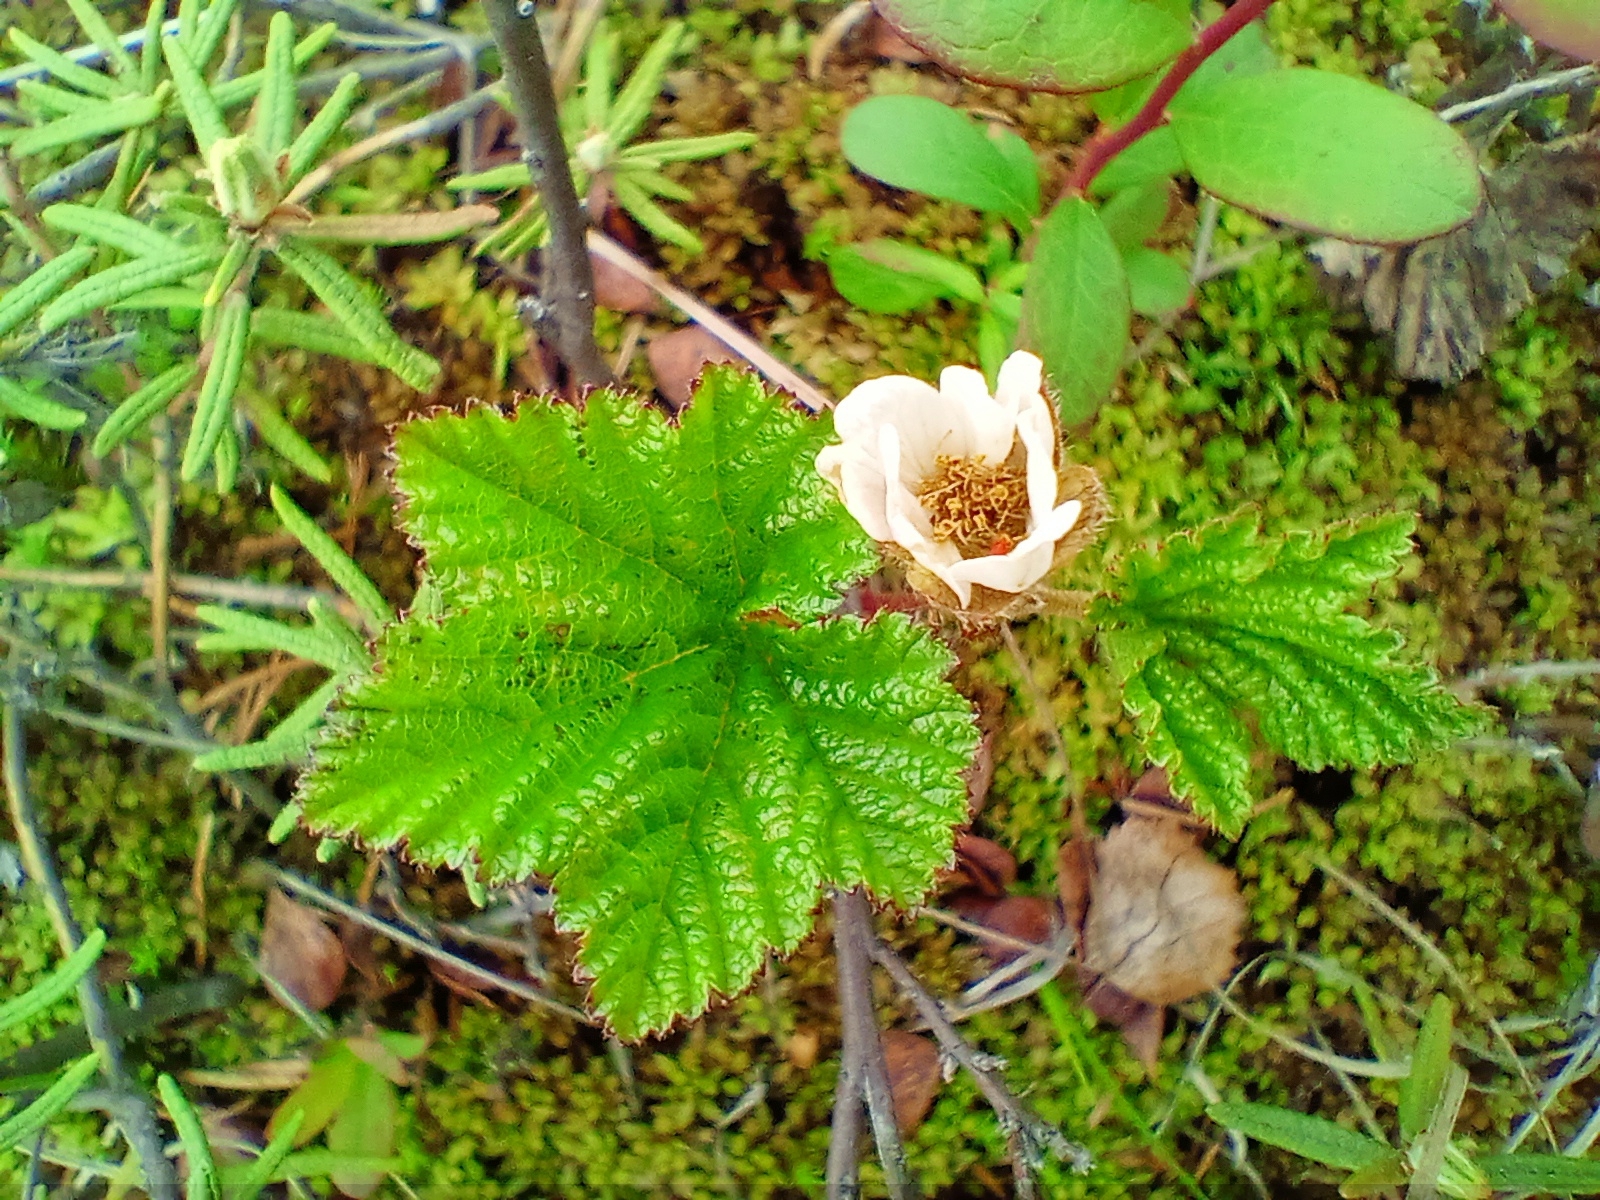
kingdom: Plantae
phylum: Tracheophyta
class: Magnoliopsida
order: Rosales
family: Rosaceae
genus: Rubus
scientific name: Rubus chamaemorus
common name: Cloudberry
